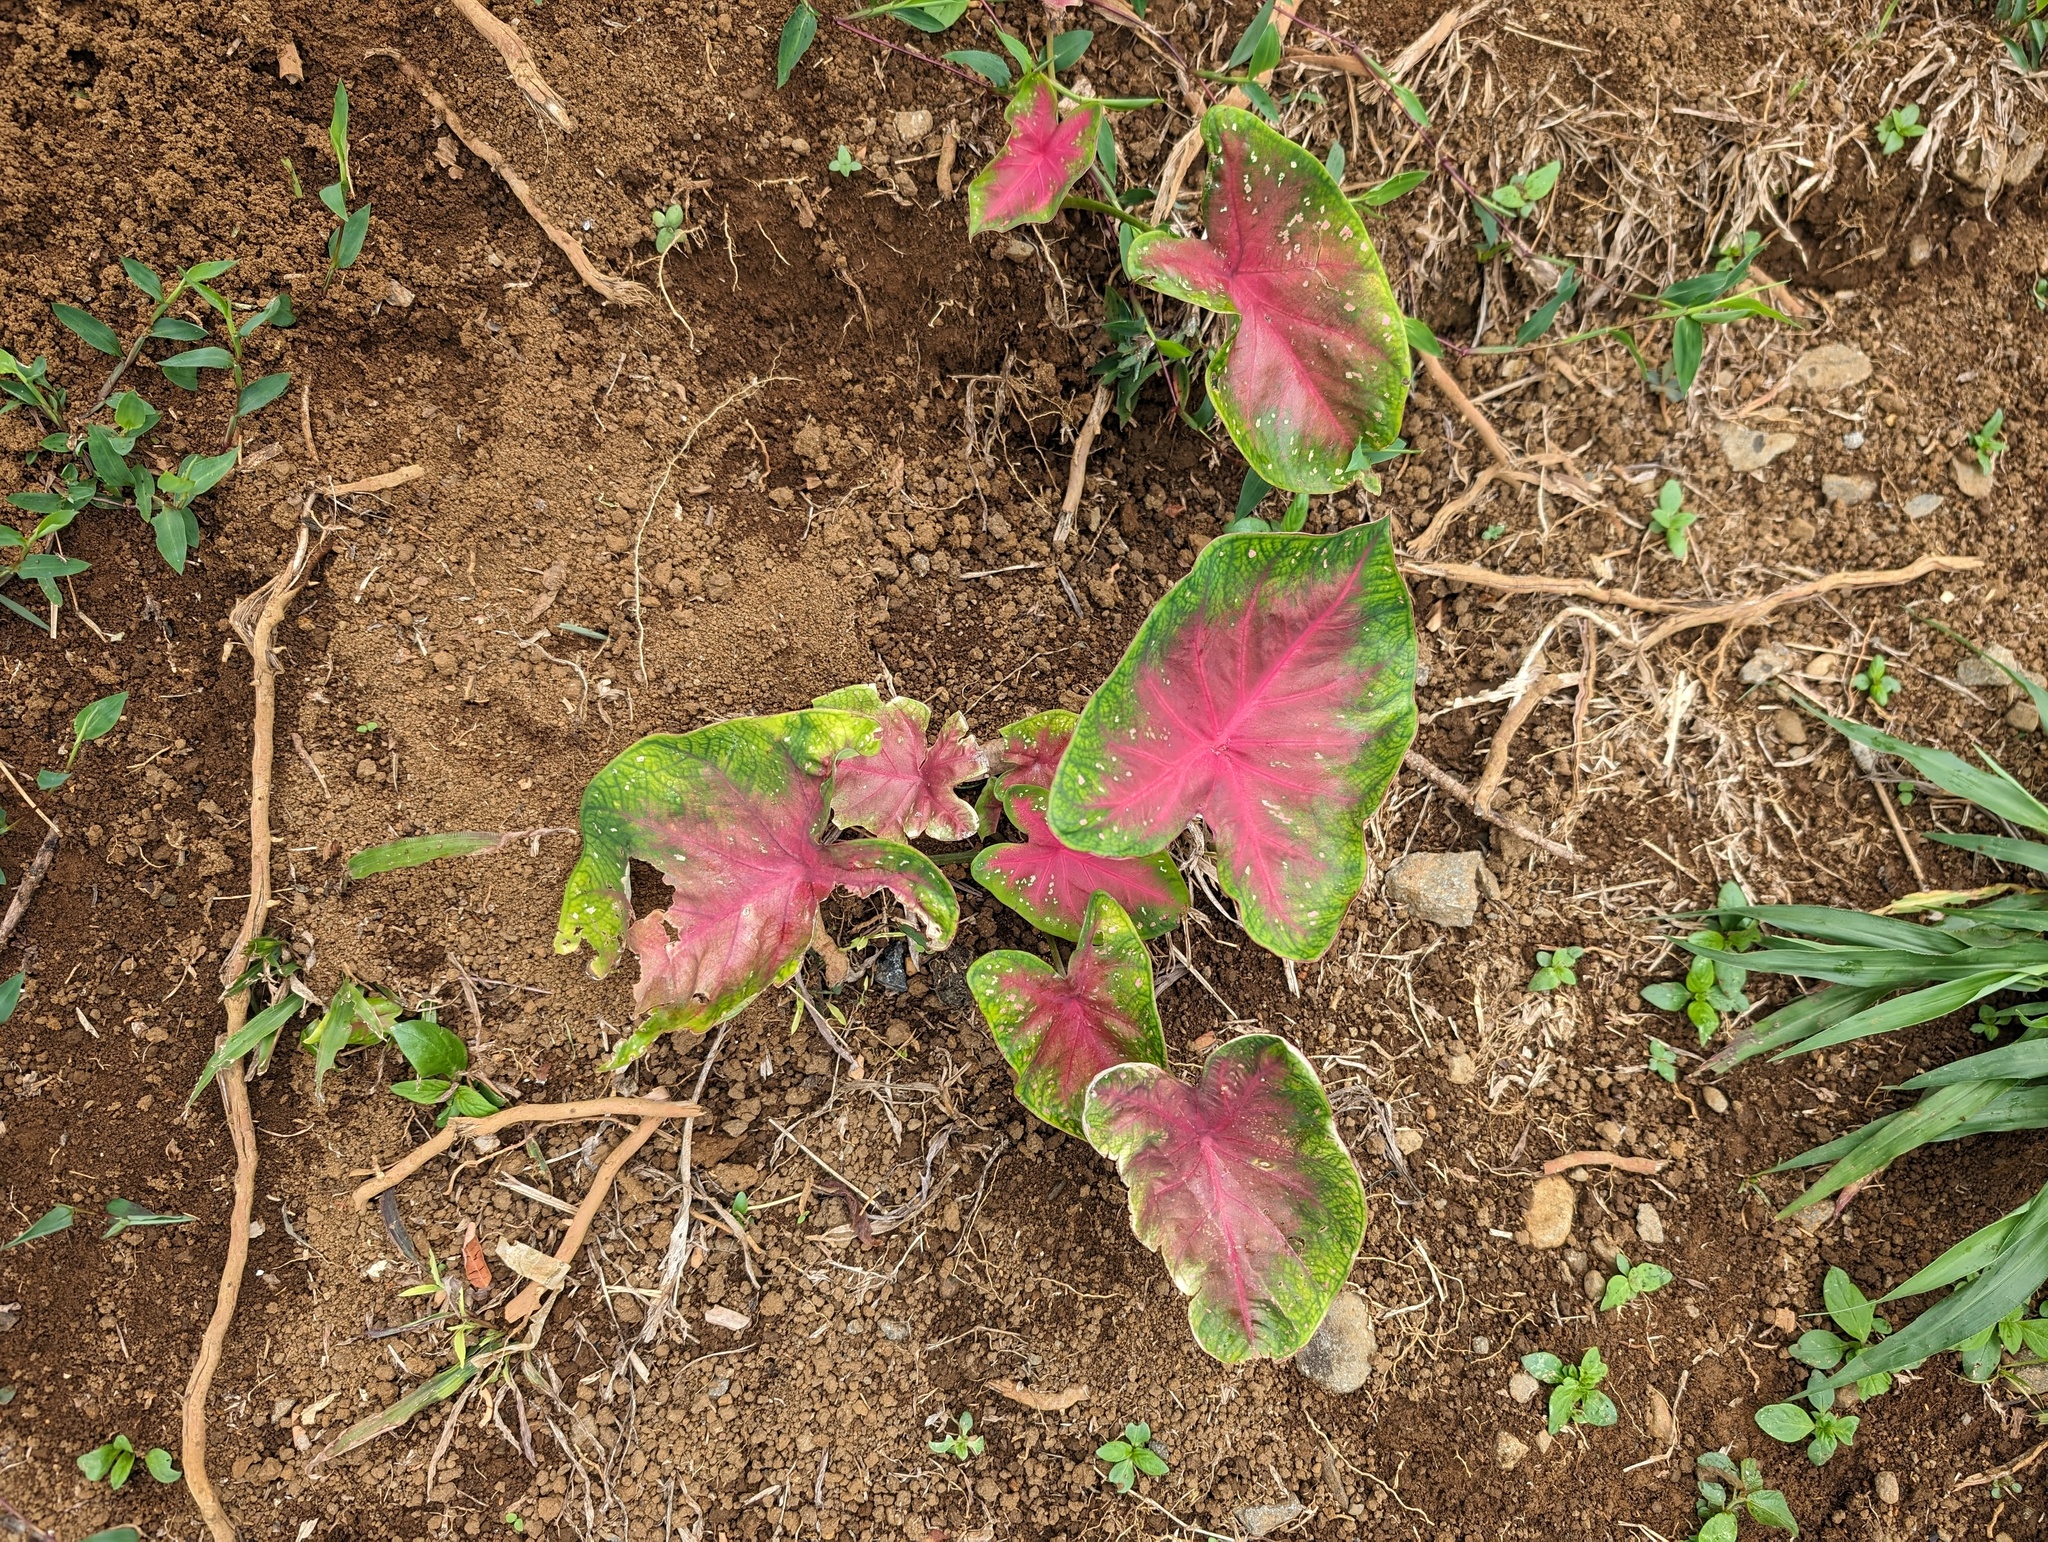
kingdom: Plantae
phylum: Tracheophyta
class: Liliopsida
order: Alismatales
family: Araceae
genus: Caladium
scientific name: Caladium bicolor
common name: Artist's pallet
